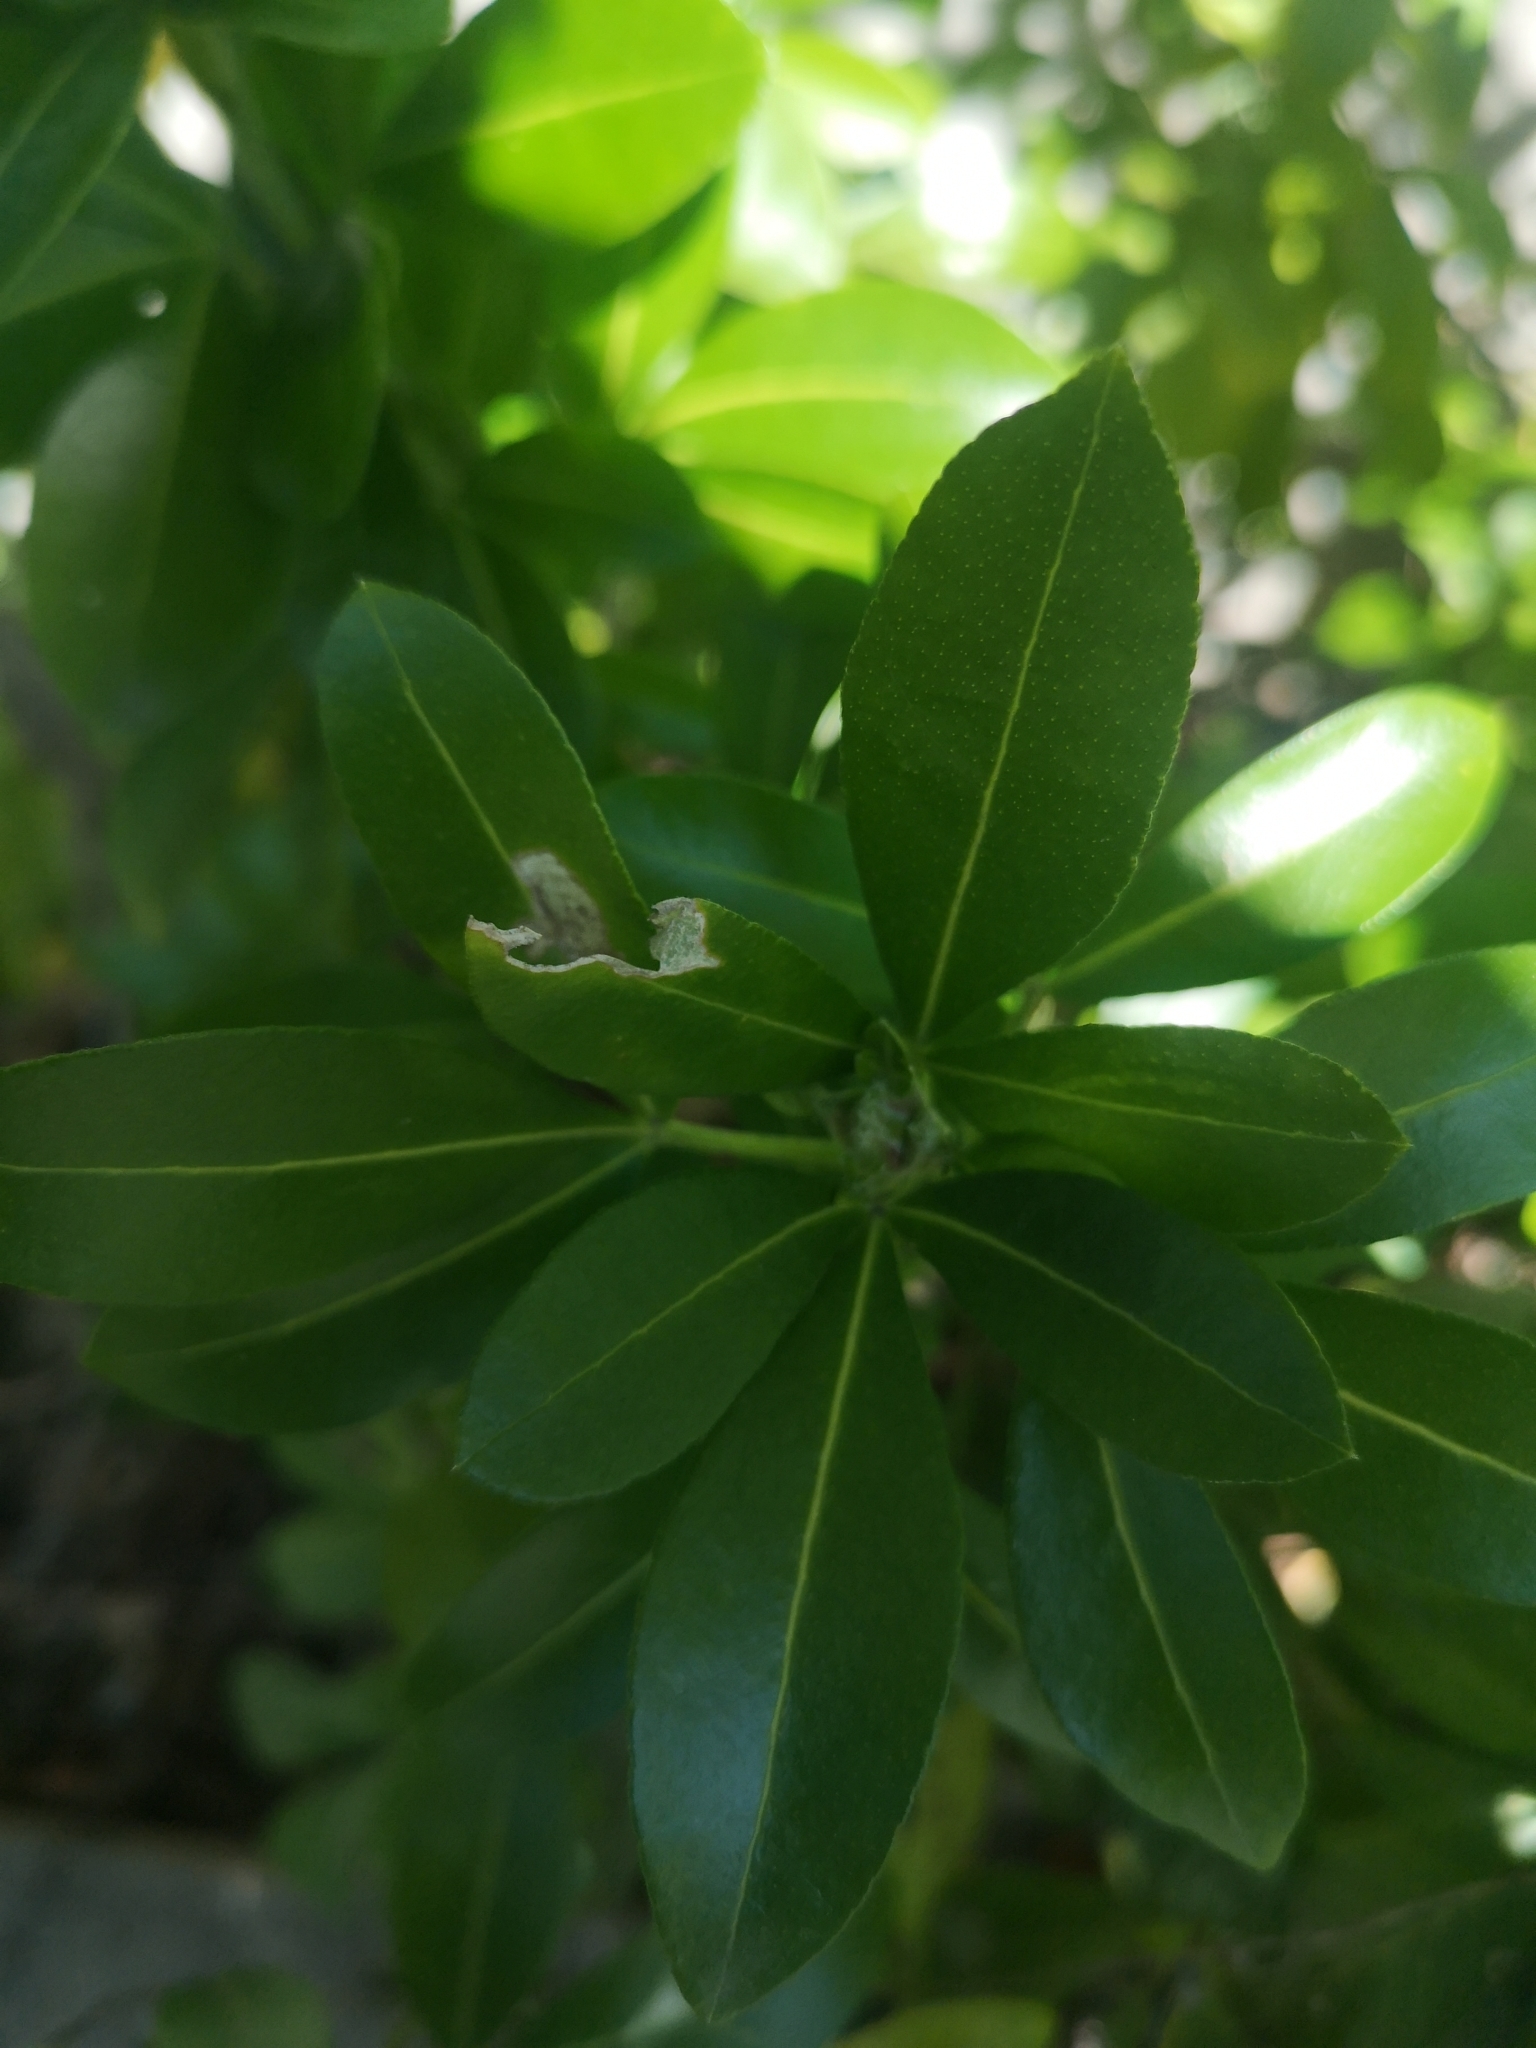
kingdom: Plantae
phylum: Tracheophyta
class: Magnoliopsida
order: Sapindales
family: Rutaceae
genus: Choisya
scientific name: Choisya ternata
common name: Mexican orange
